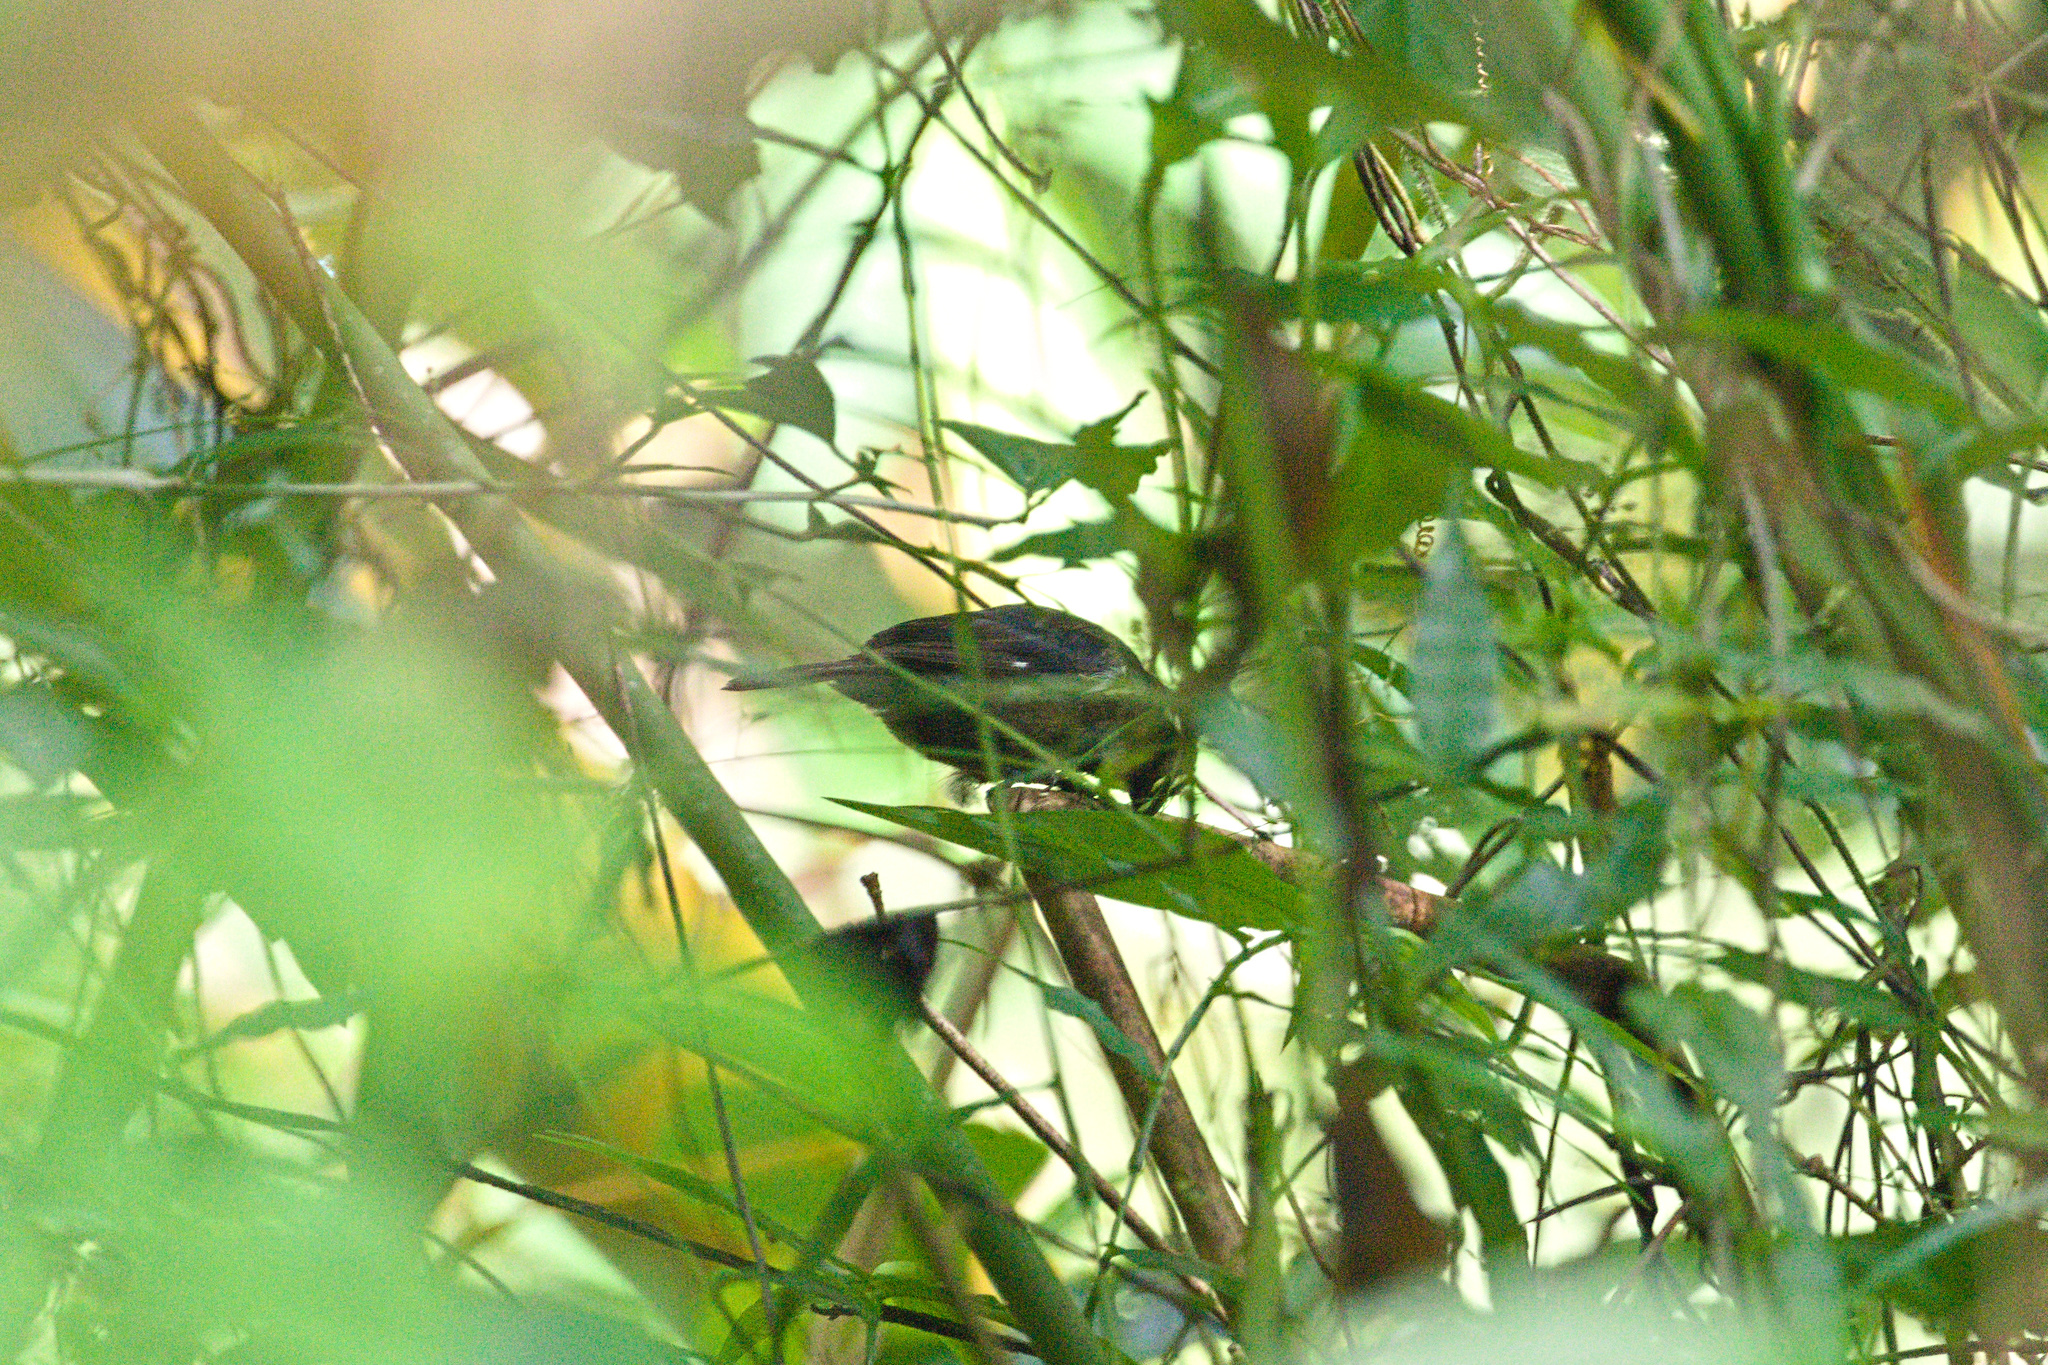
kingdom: Animalia
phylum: Chordata
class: Aves
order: Passeriformes
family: Thraupidae
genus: Sporophila
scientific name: Sporophila corvina
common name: Variable seedeater
